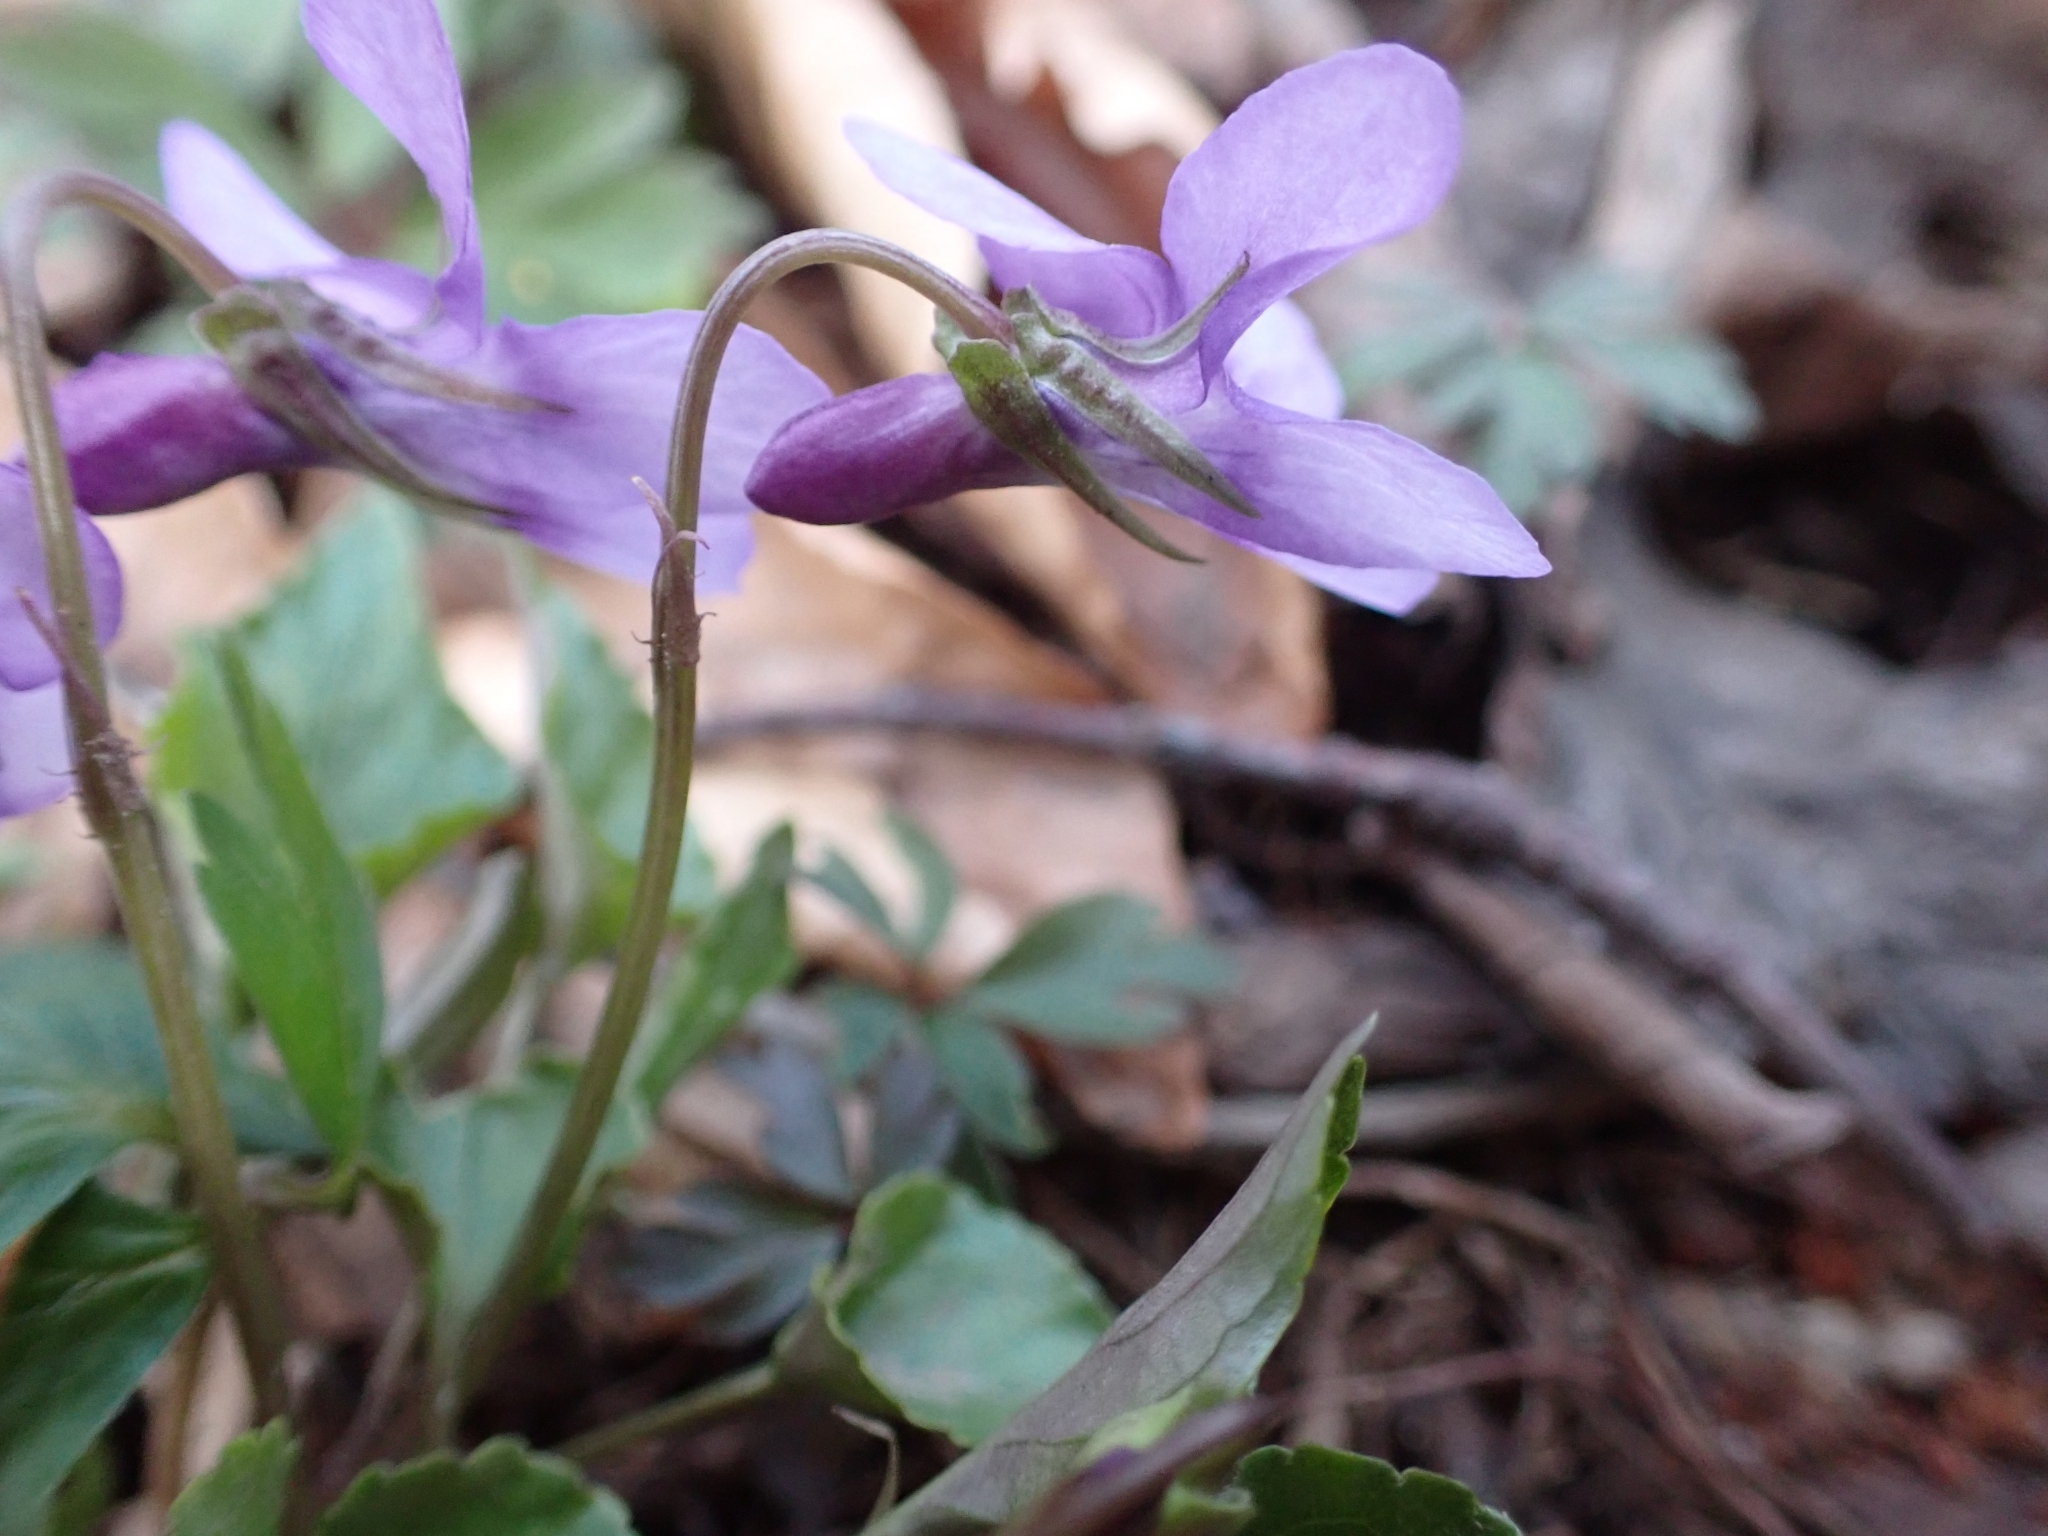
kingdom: Plantae
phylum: Tracheophyta
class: Magnoliopsida
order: Malpighiales
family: Violaceae
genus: Viola
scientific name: Viola reichenbachiana
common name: Early dog-violet
